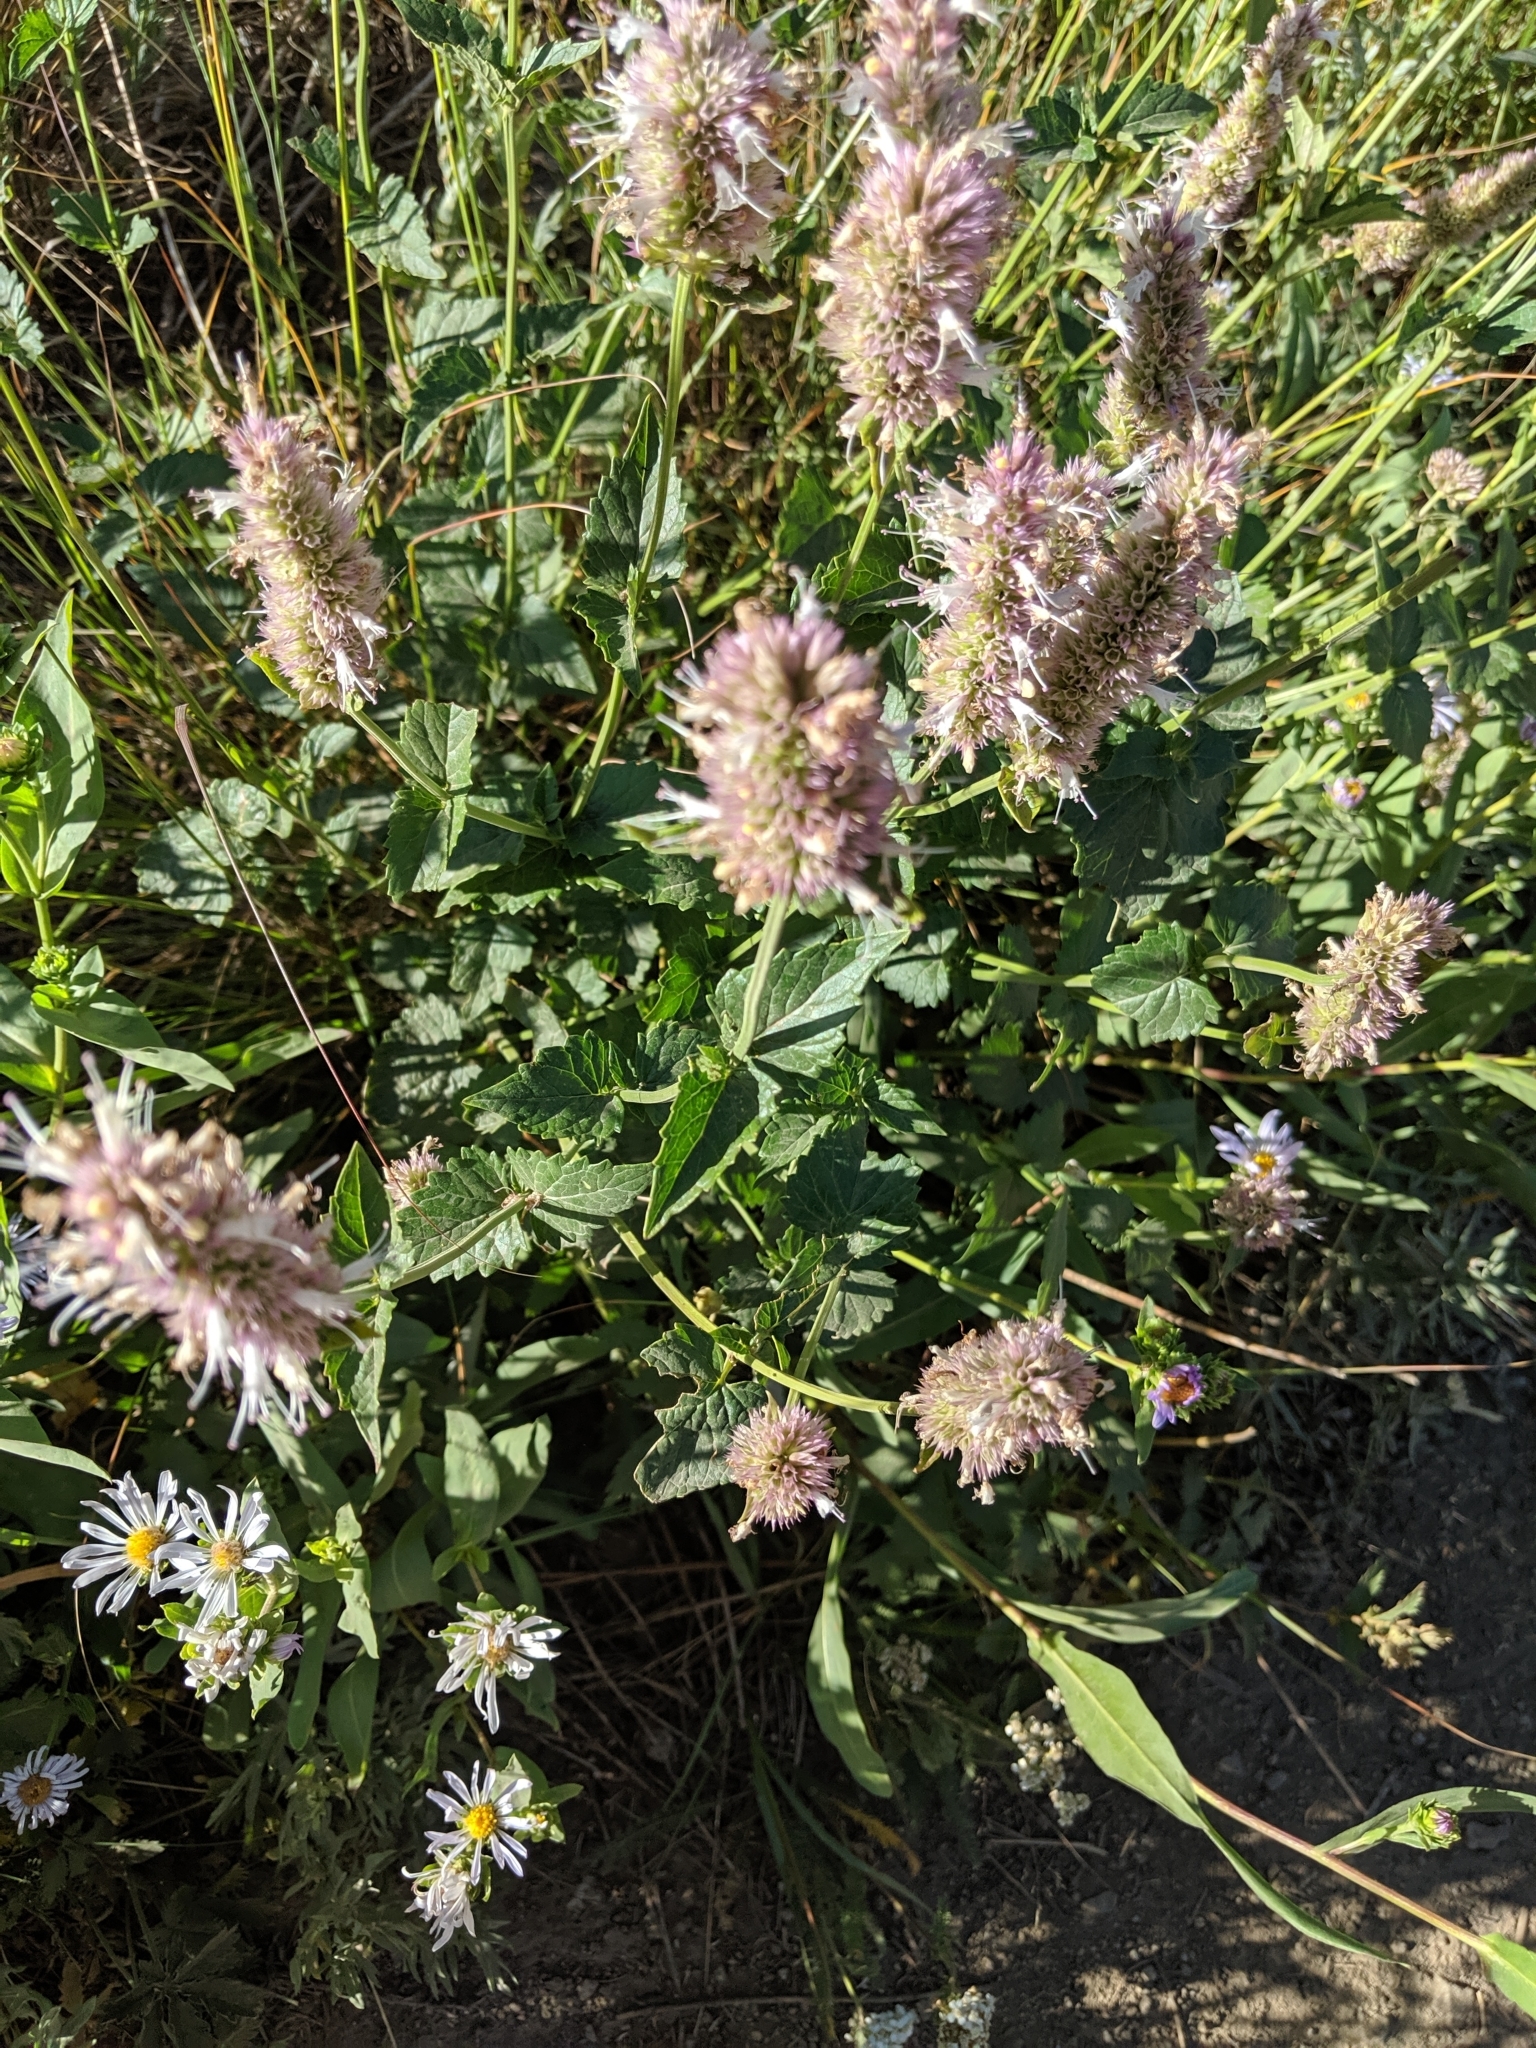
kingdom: Plantae
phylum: Tracheophyta
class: Magnoliopsida
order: Lamiales
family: Lamiaceae
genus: Agastache
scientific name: Agastache urticifolia
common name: Horsemint giant hyssop
